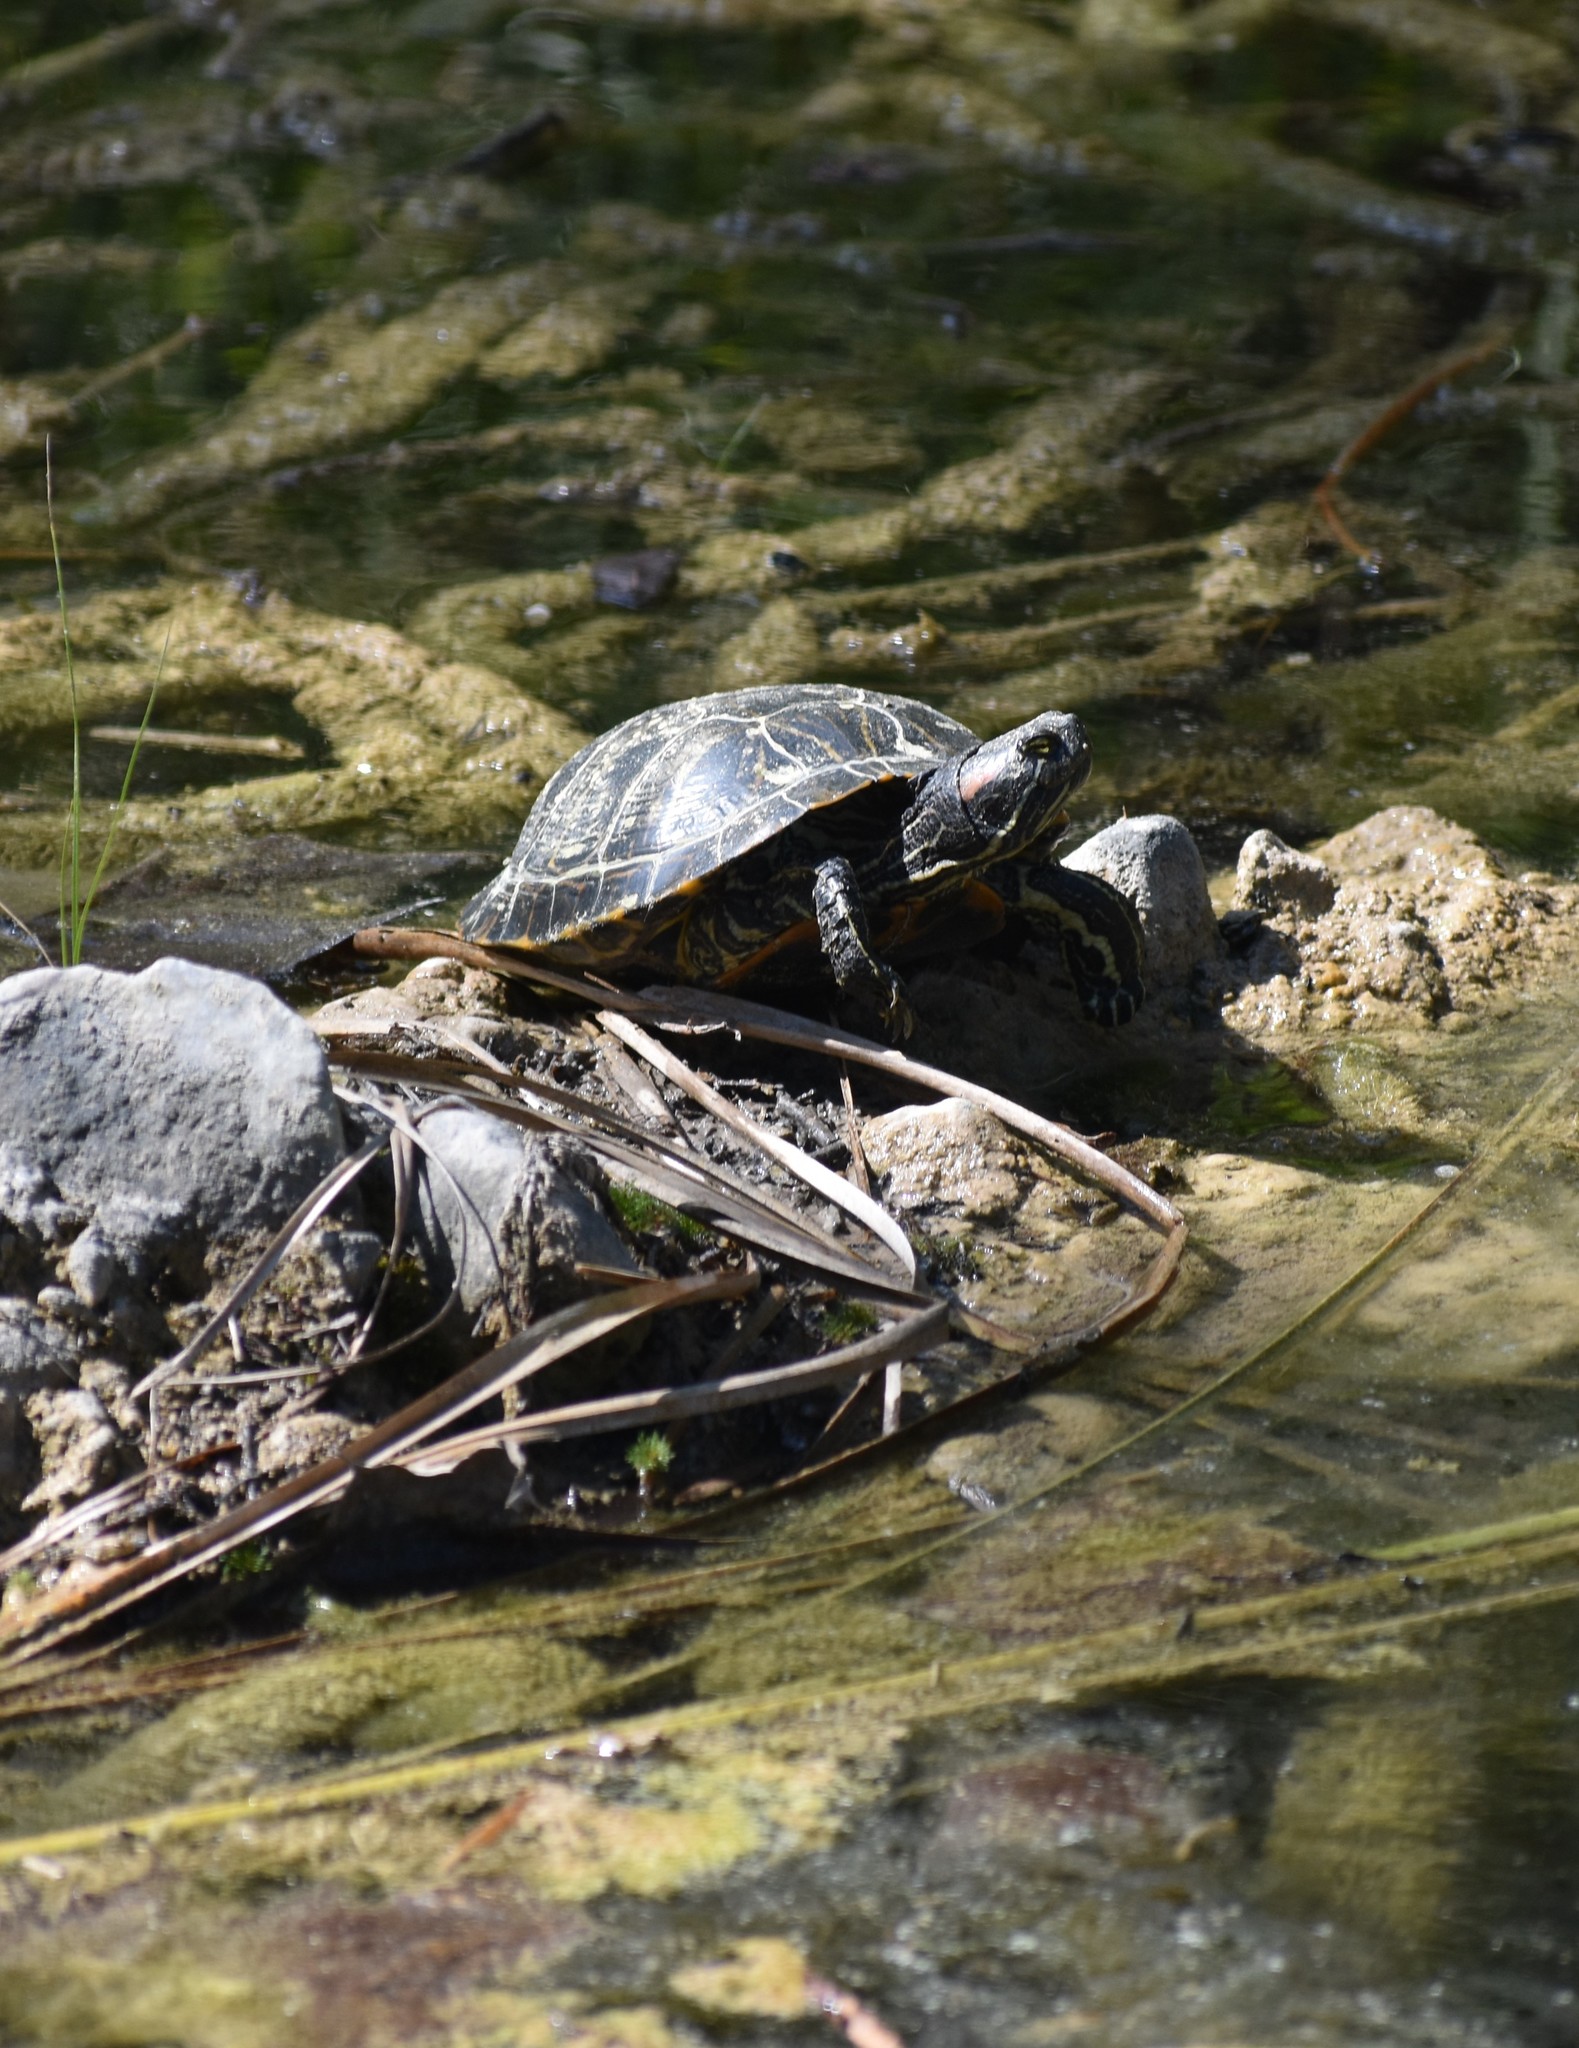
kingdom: Animalia
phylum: Chordata
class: Testudines
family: Emydidae
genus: Trachemys
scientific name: Trachemys scripta
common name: Slider
